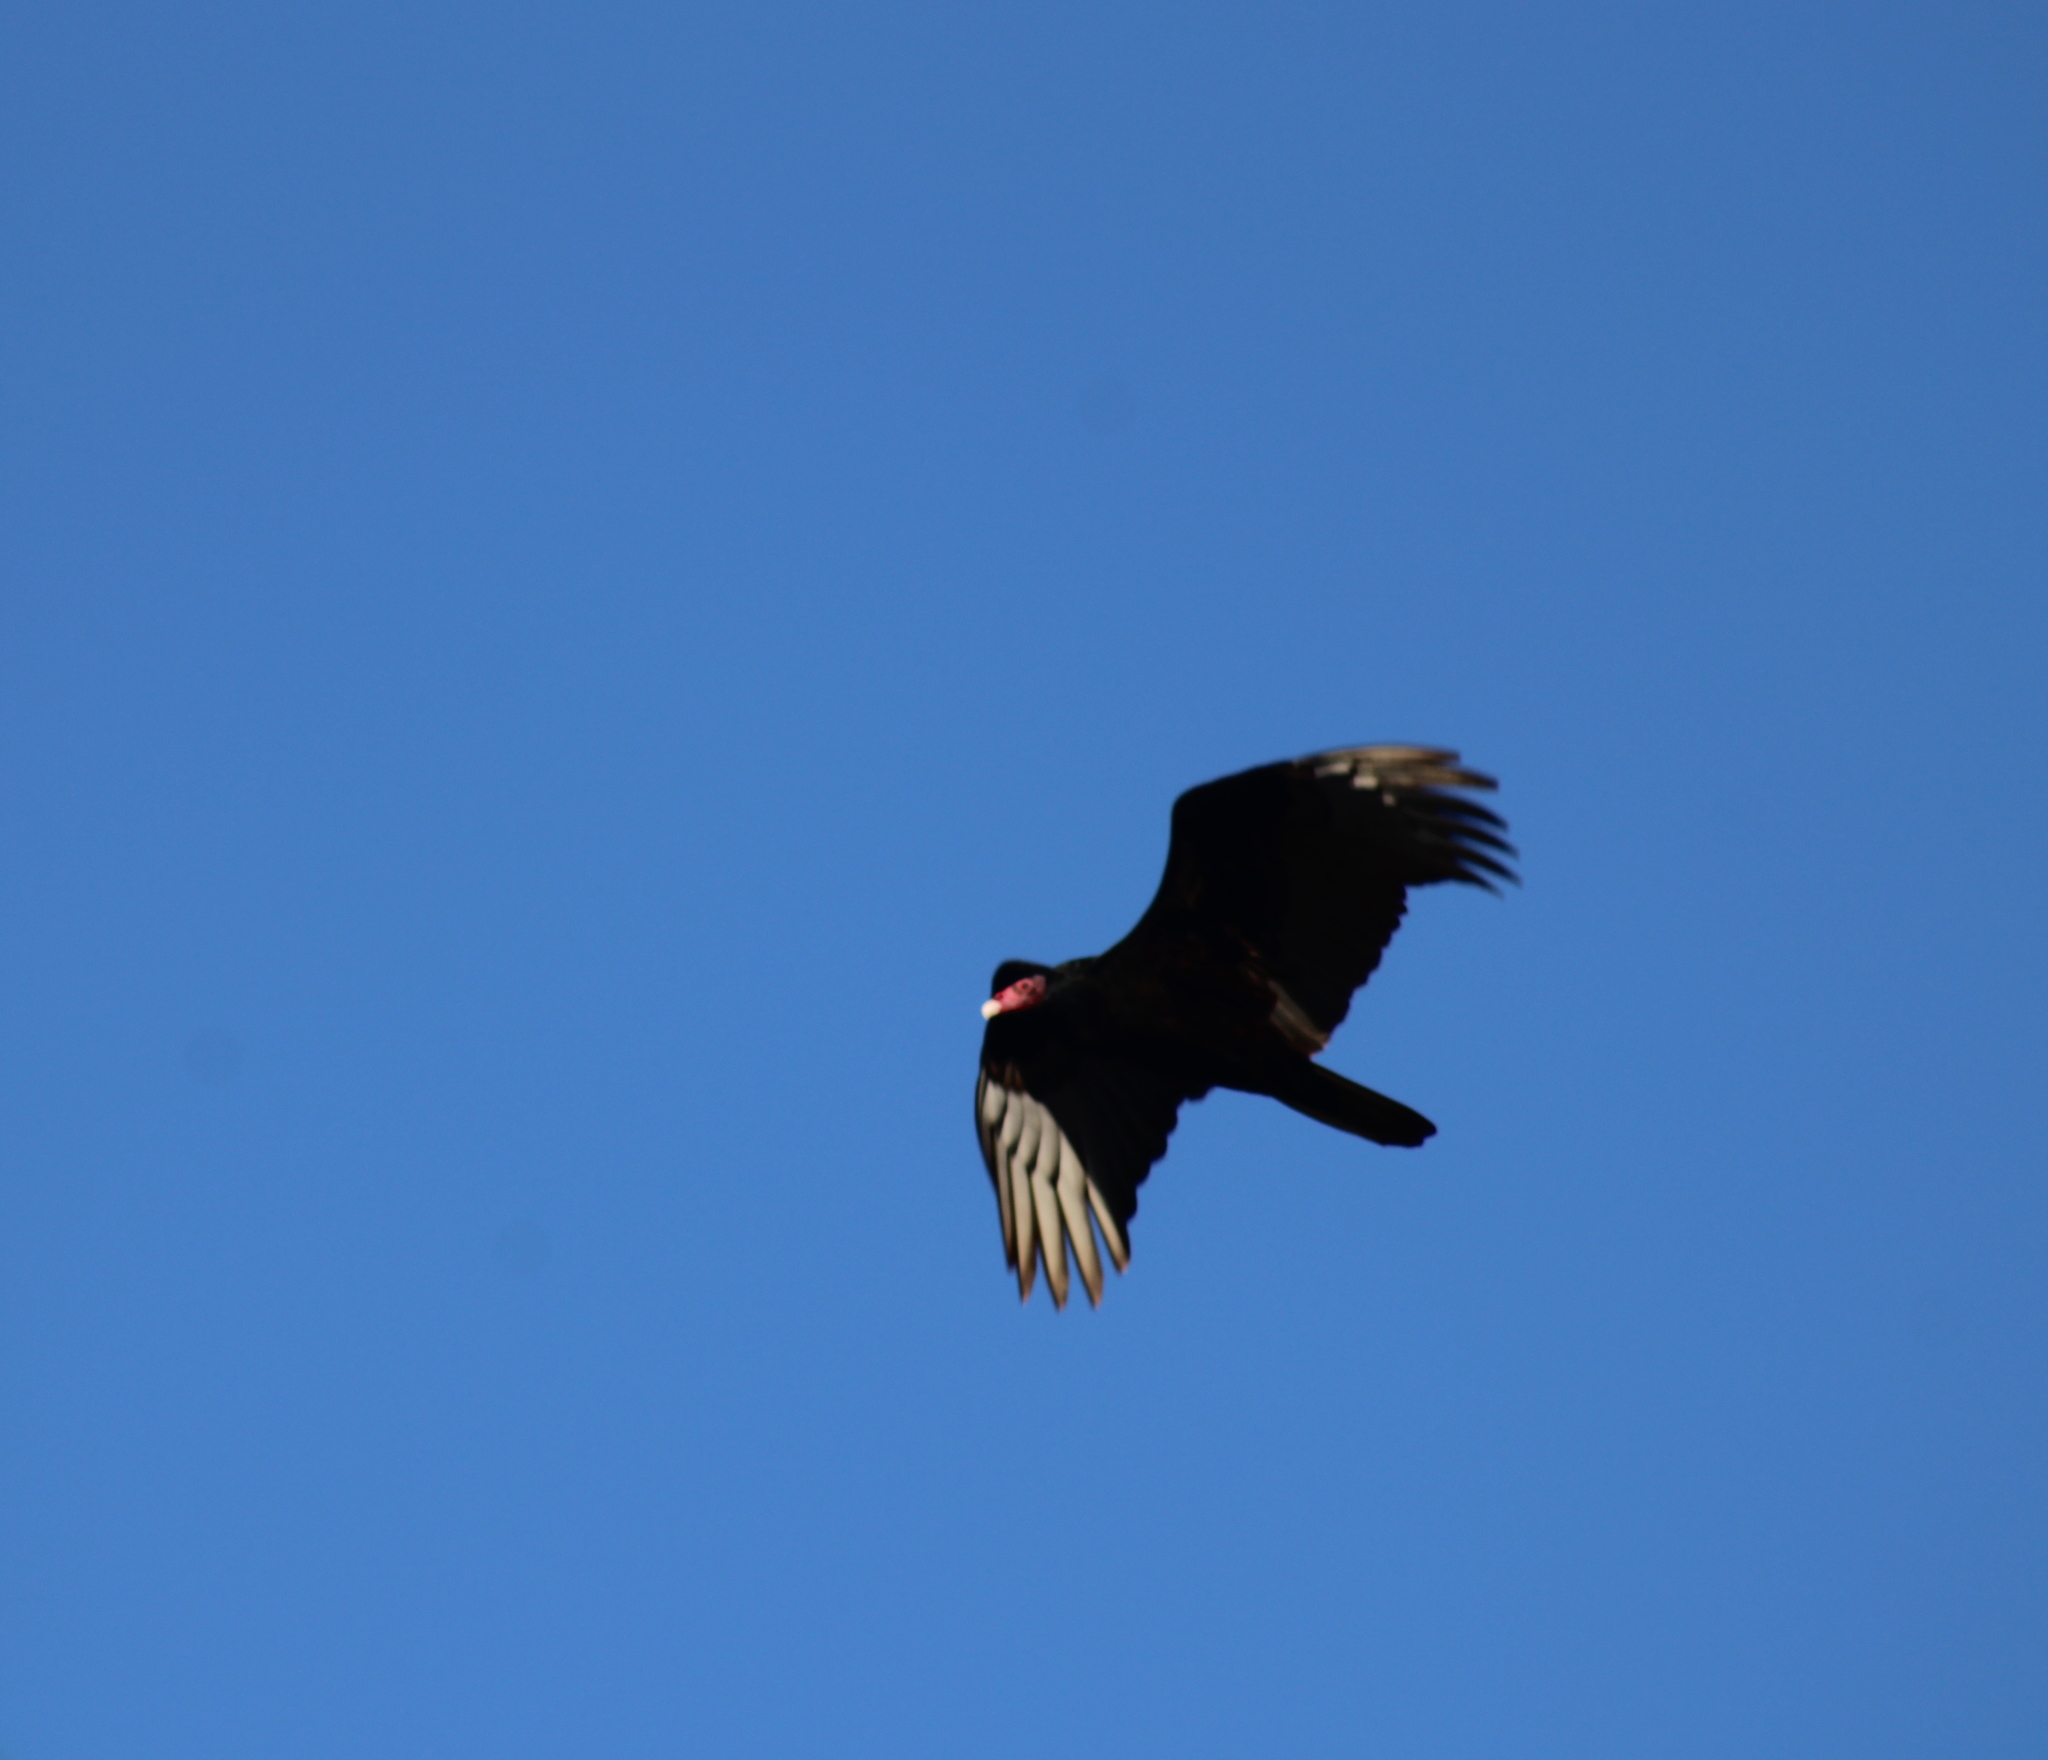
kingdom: Animalia
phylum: Chordata
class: Aves
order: Accipitriformes
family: Cathartidae
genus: Cathartes
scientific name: Cathartes aura
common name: Turkey vulture
